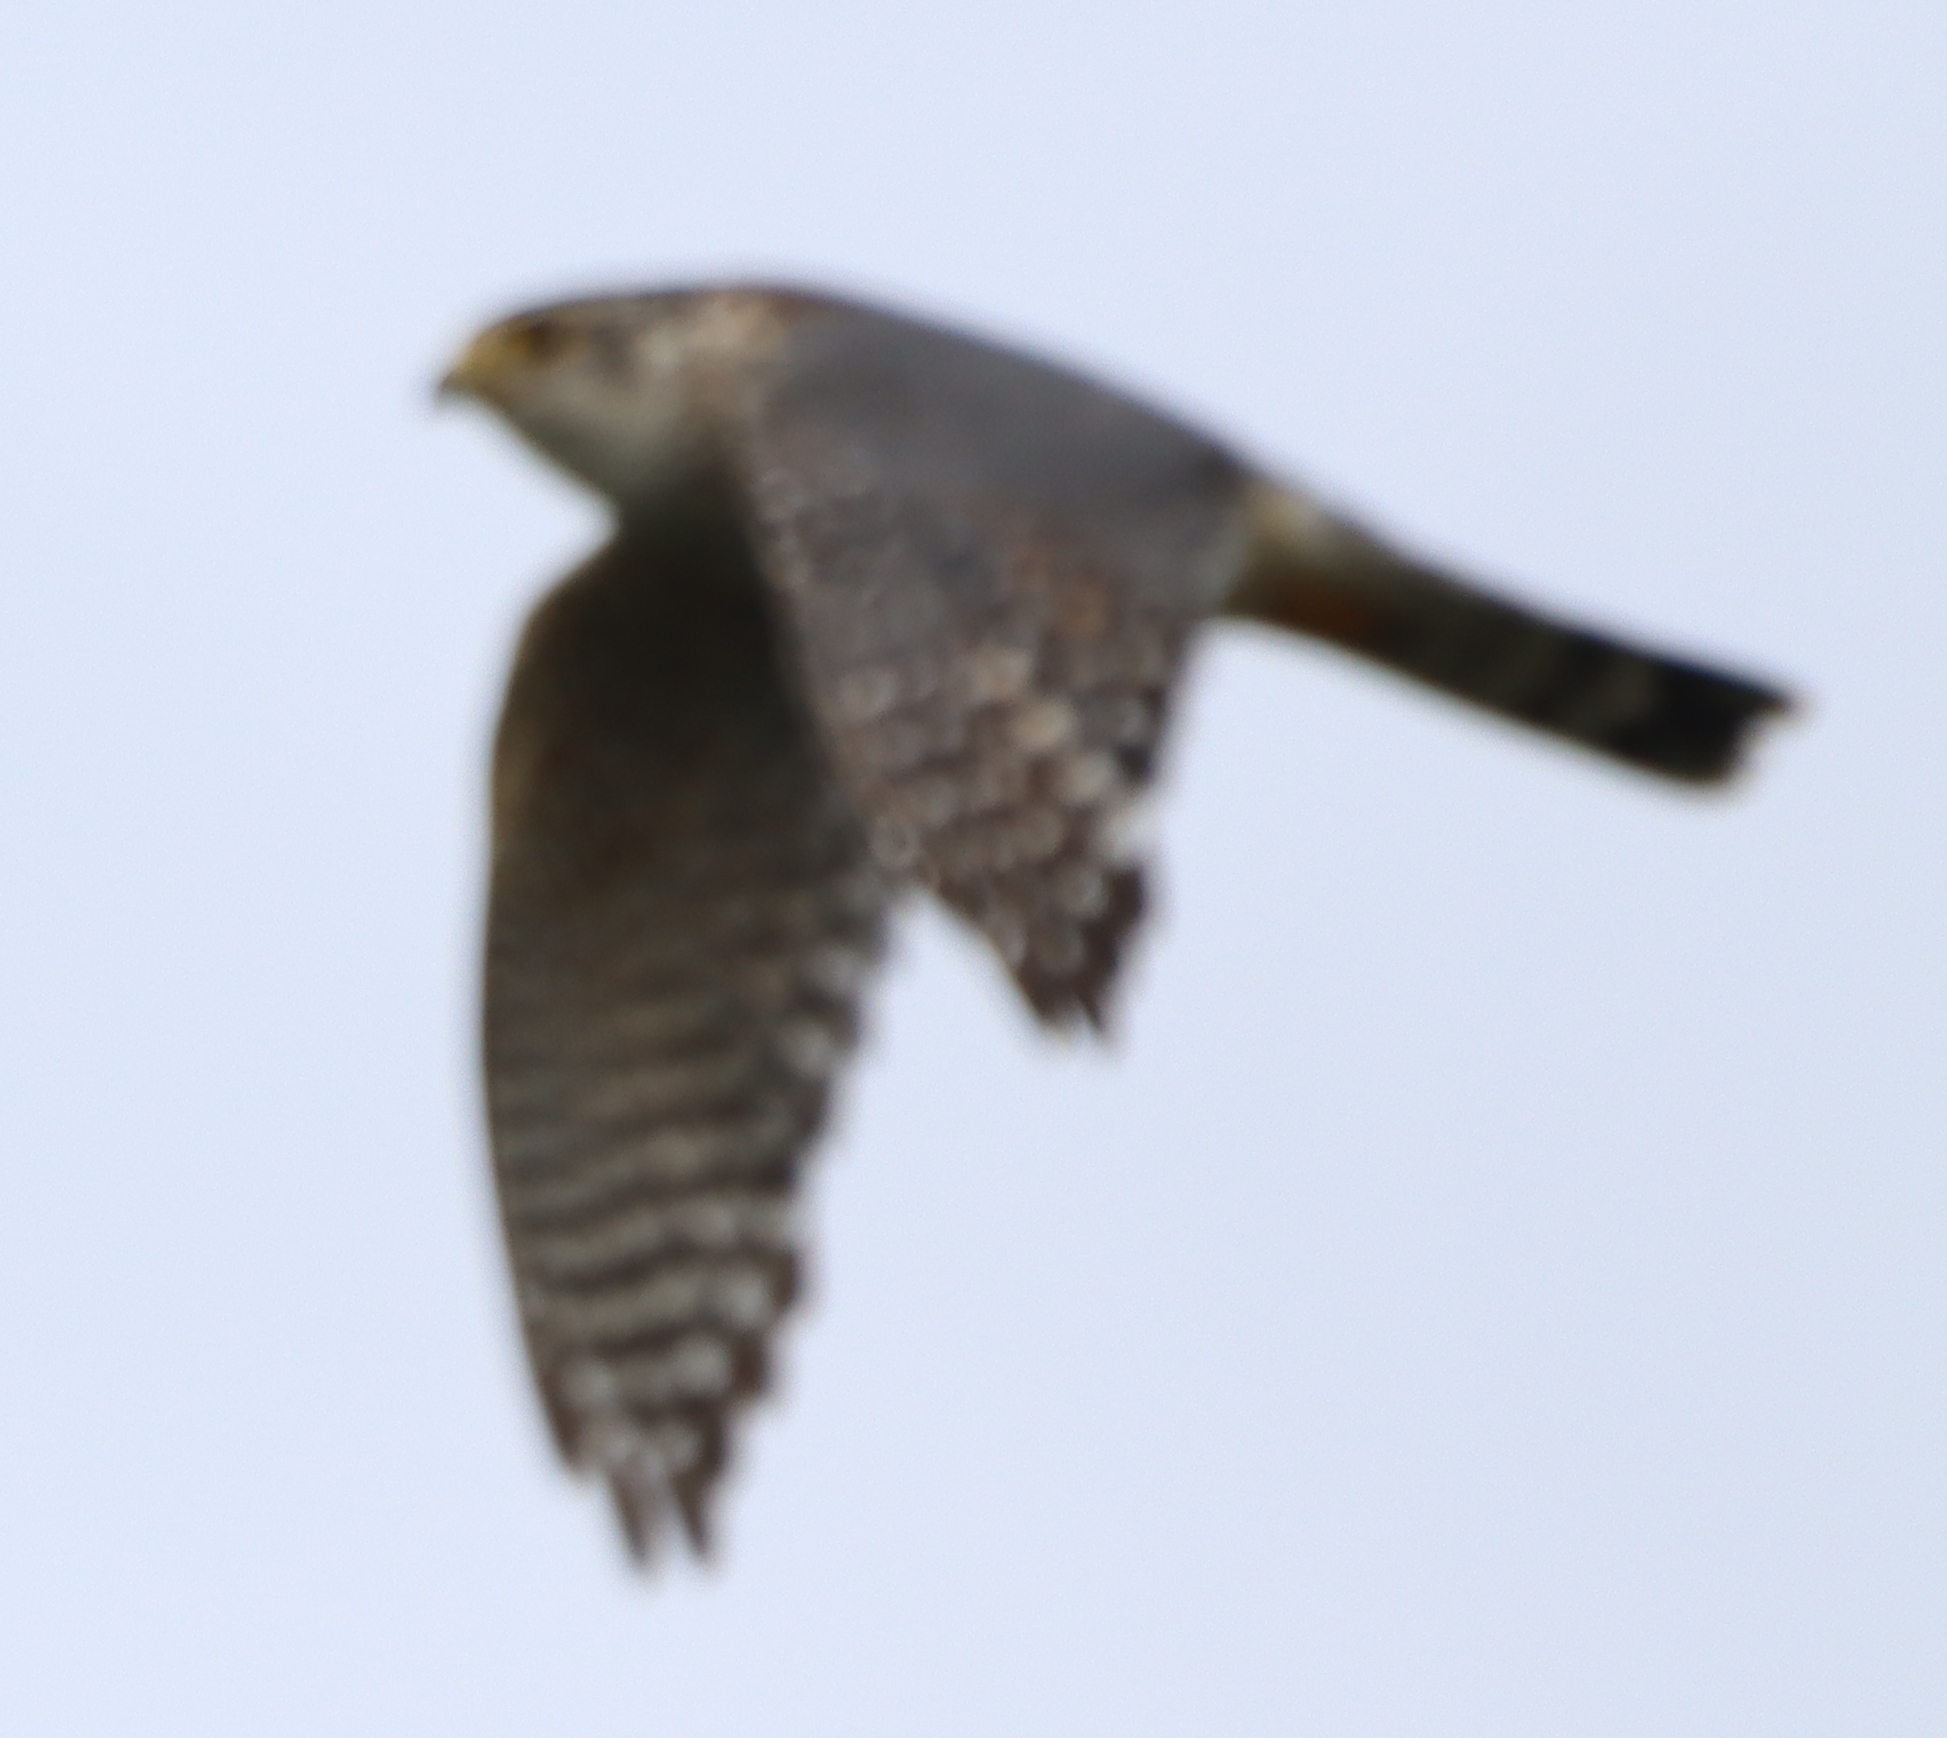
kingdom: Animalia
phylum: Chordata
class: Aves
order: Falconiformes
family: Falconidae
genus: Falco
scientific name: Falco columbarius
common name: Merlin
